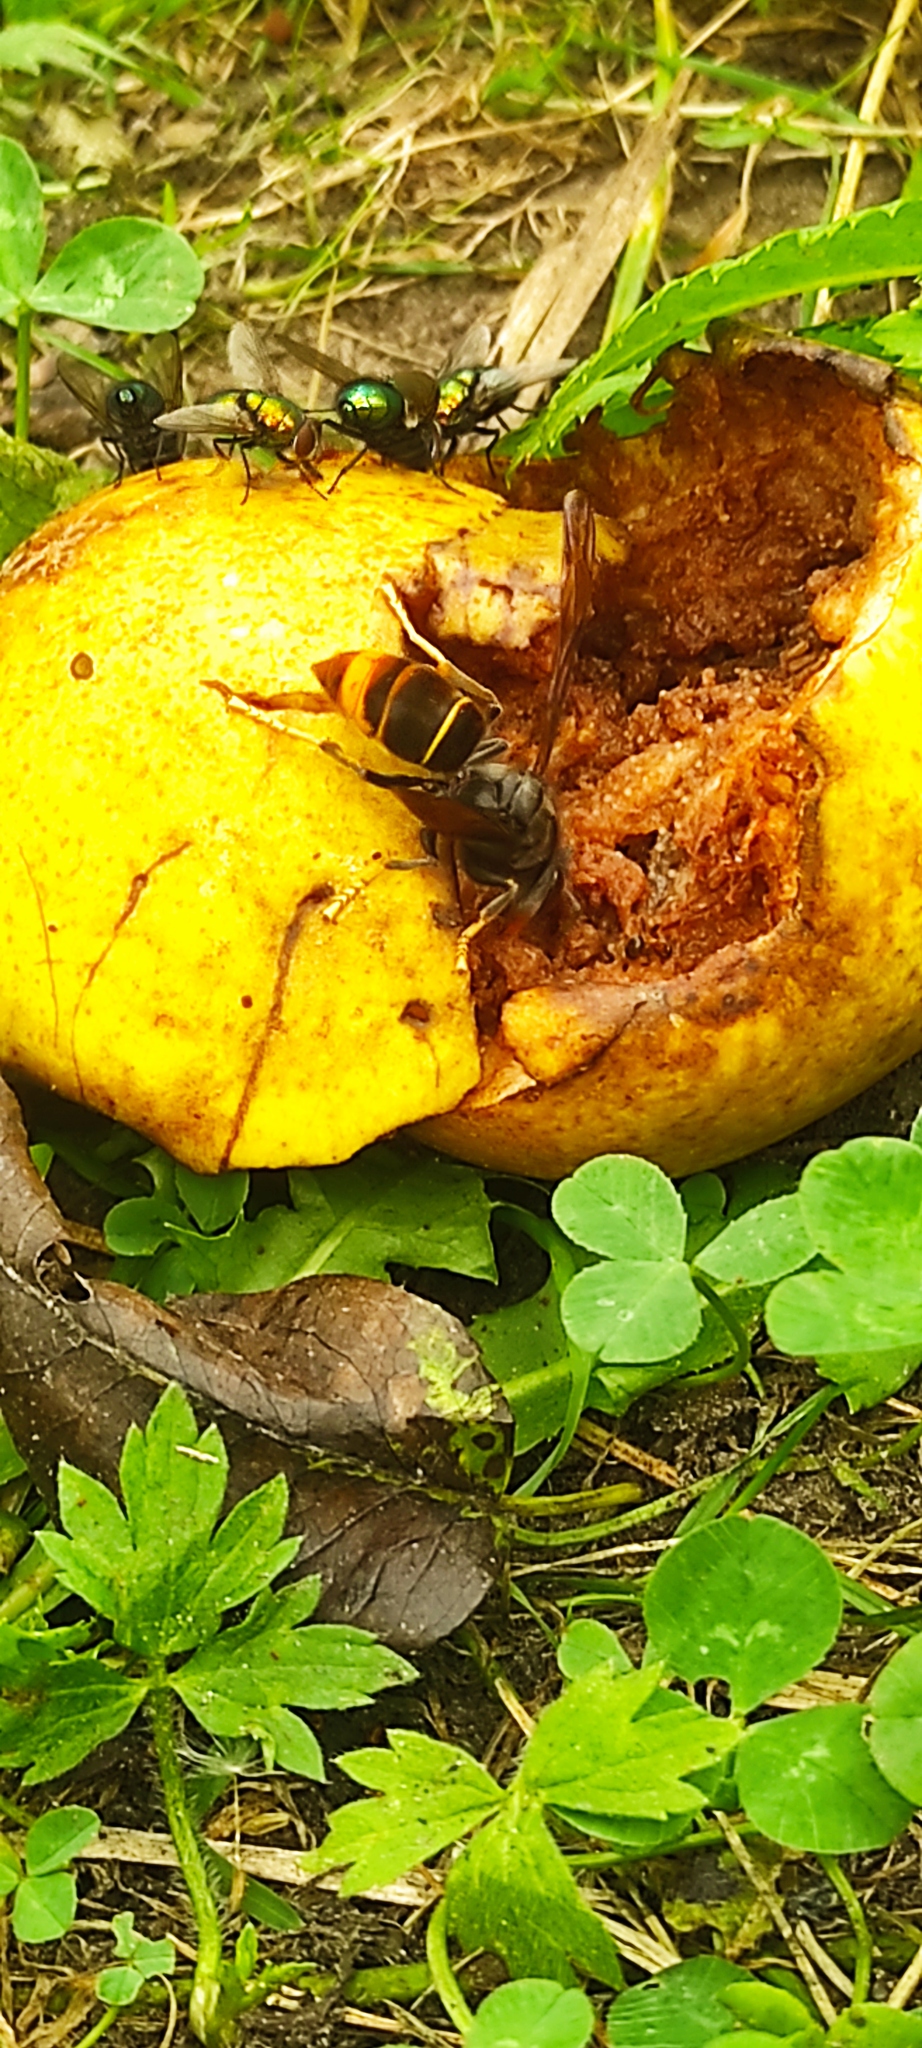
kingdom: Animalia
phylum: Arthropoda
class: Insecta
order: Hymenoptera
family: Vespidae
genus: Vespa
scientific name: Vespa velutina
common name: Asian hornet
